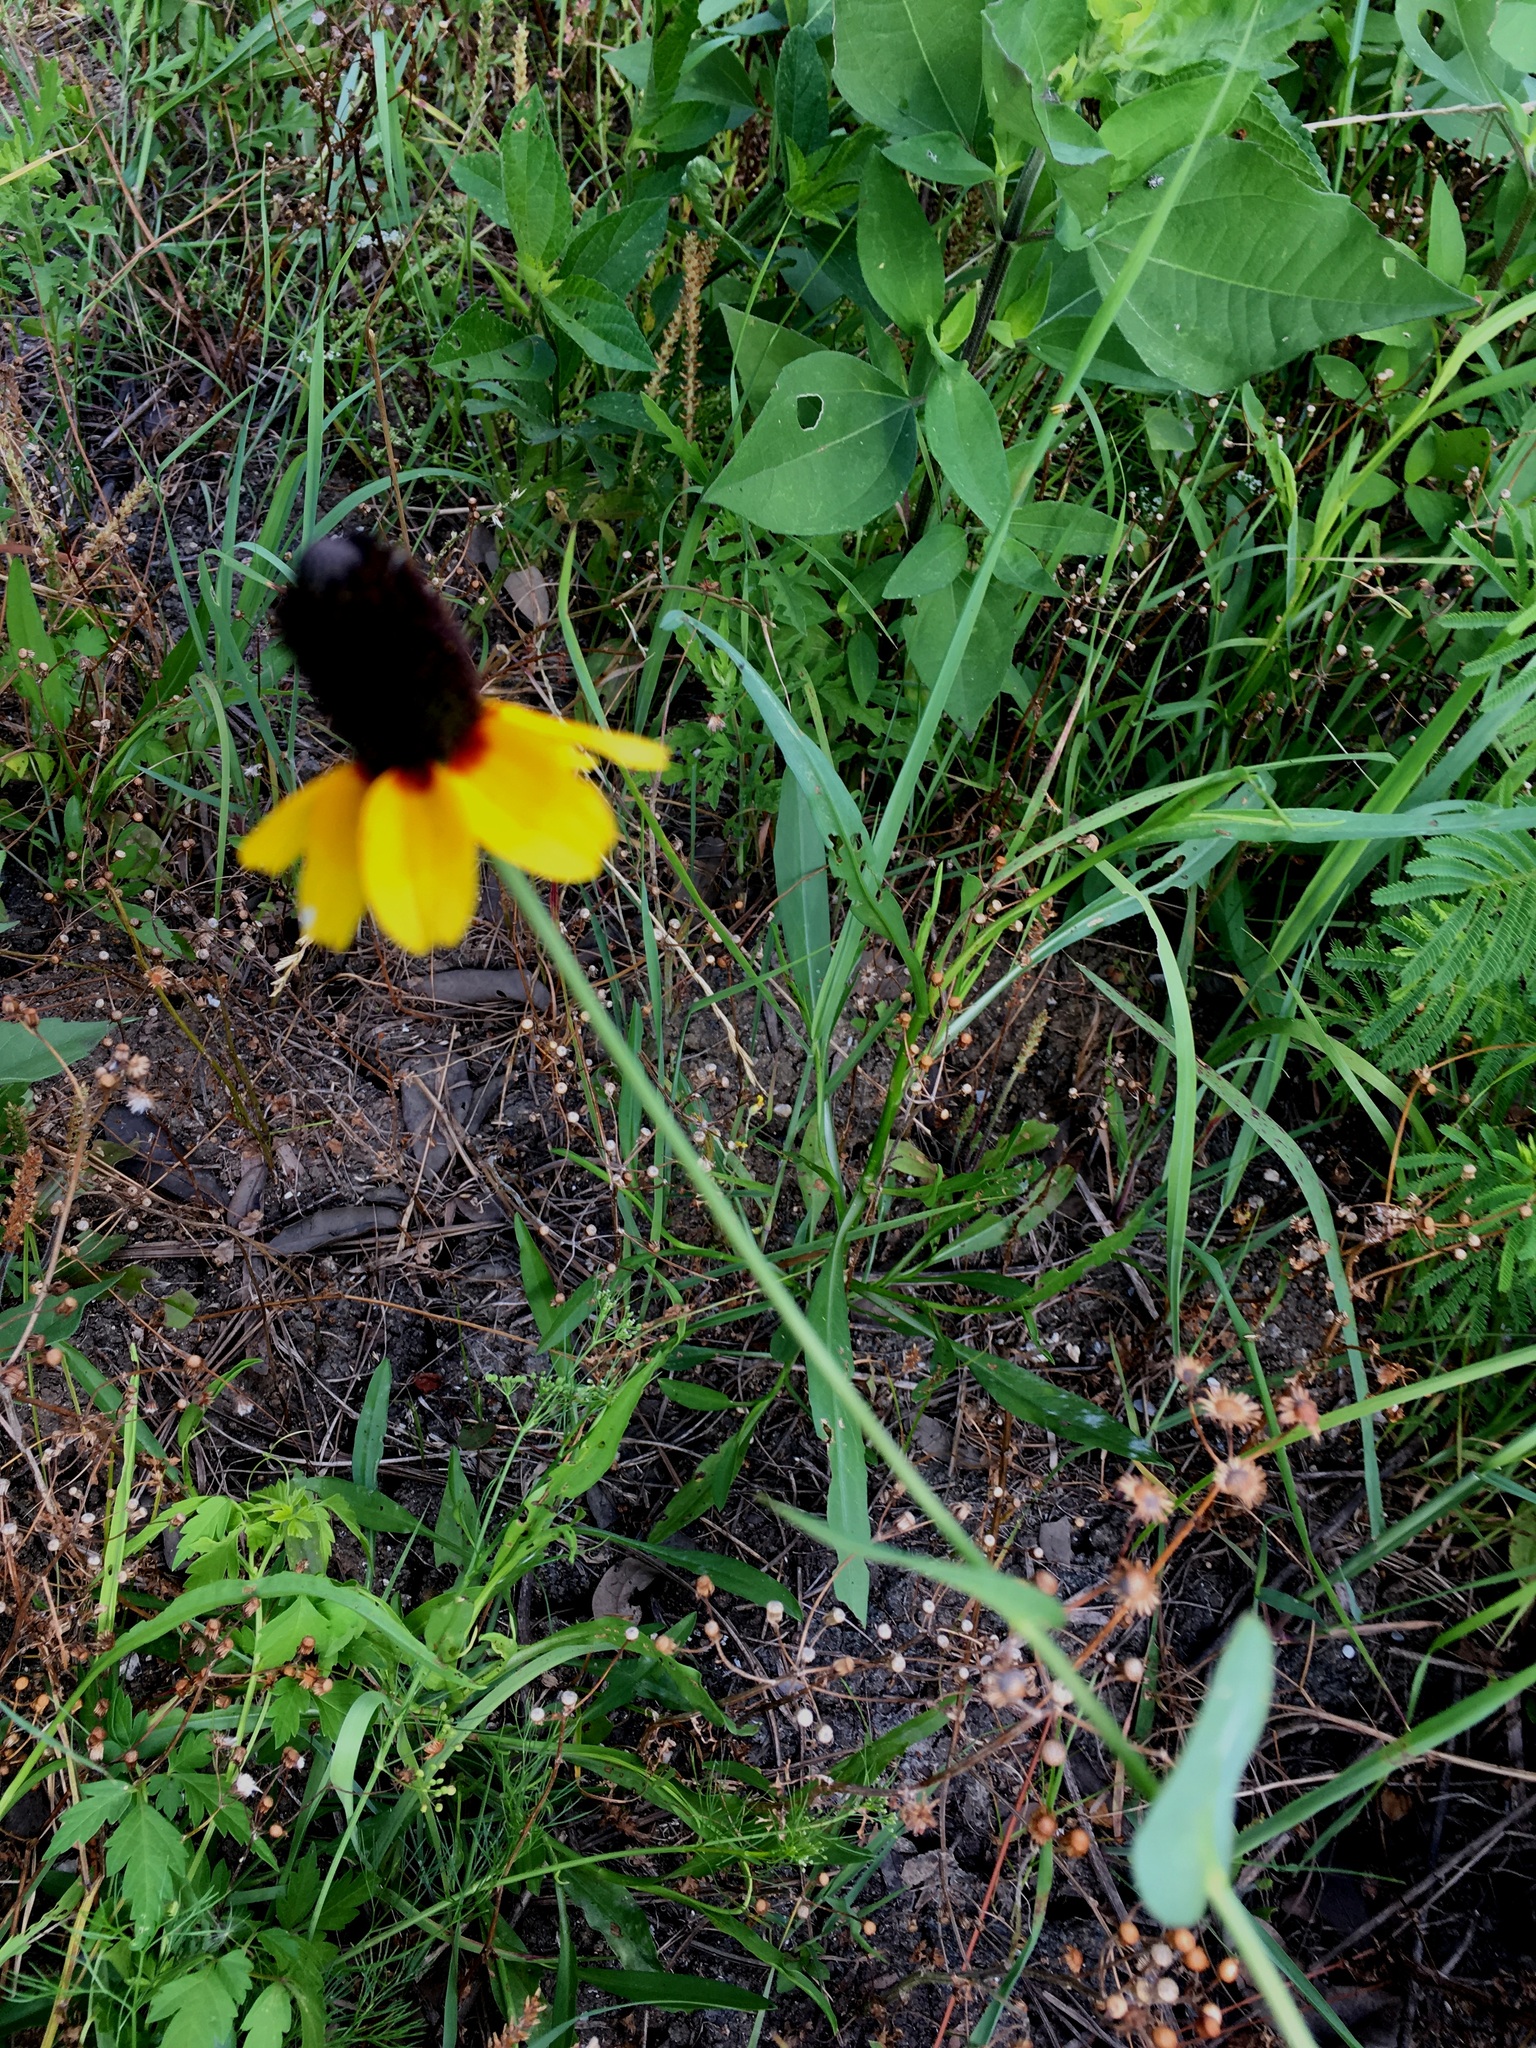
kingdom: Plantae
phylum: Tracheophyta
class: Magnoliopsida
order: Asterales
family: Asteraceae
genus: Rudbeckia
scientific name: Rudbeckia amplexicaulis
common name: Clasping-leaf coneflower
